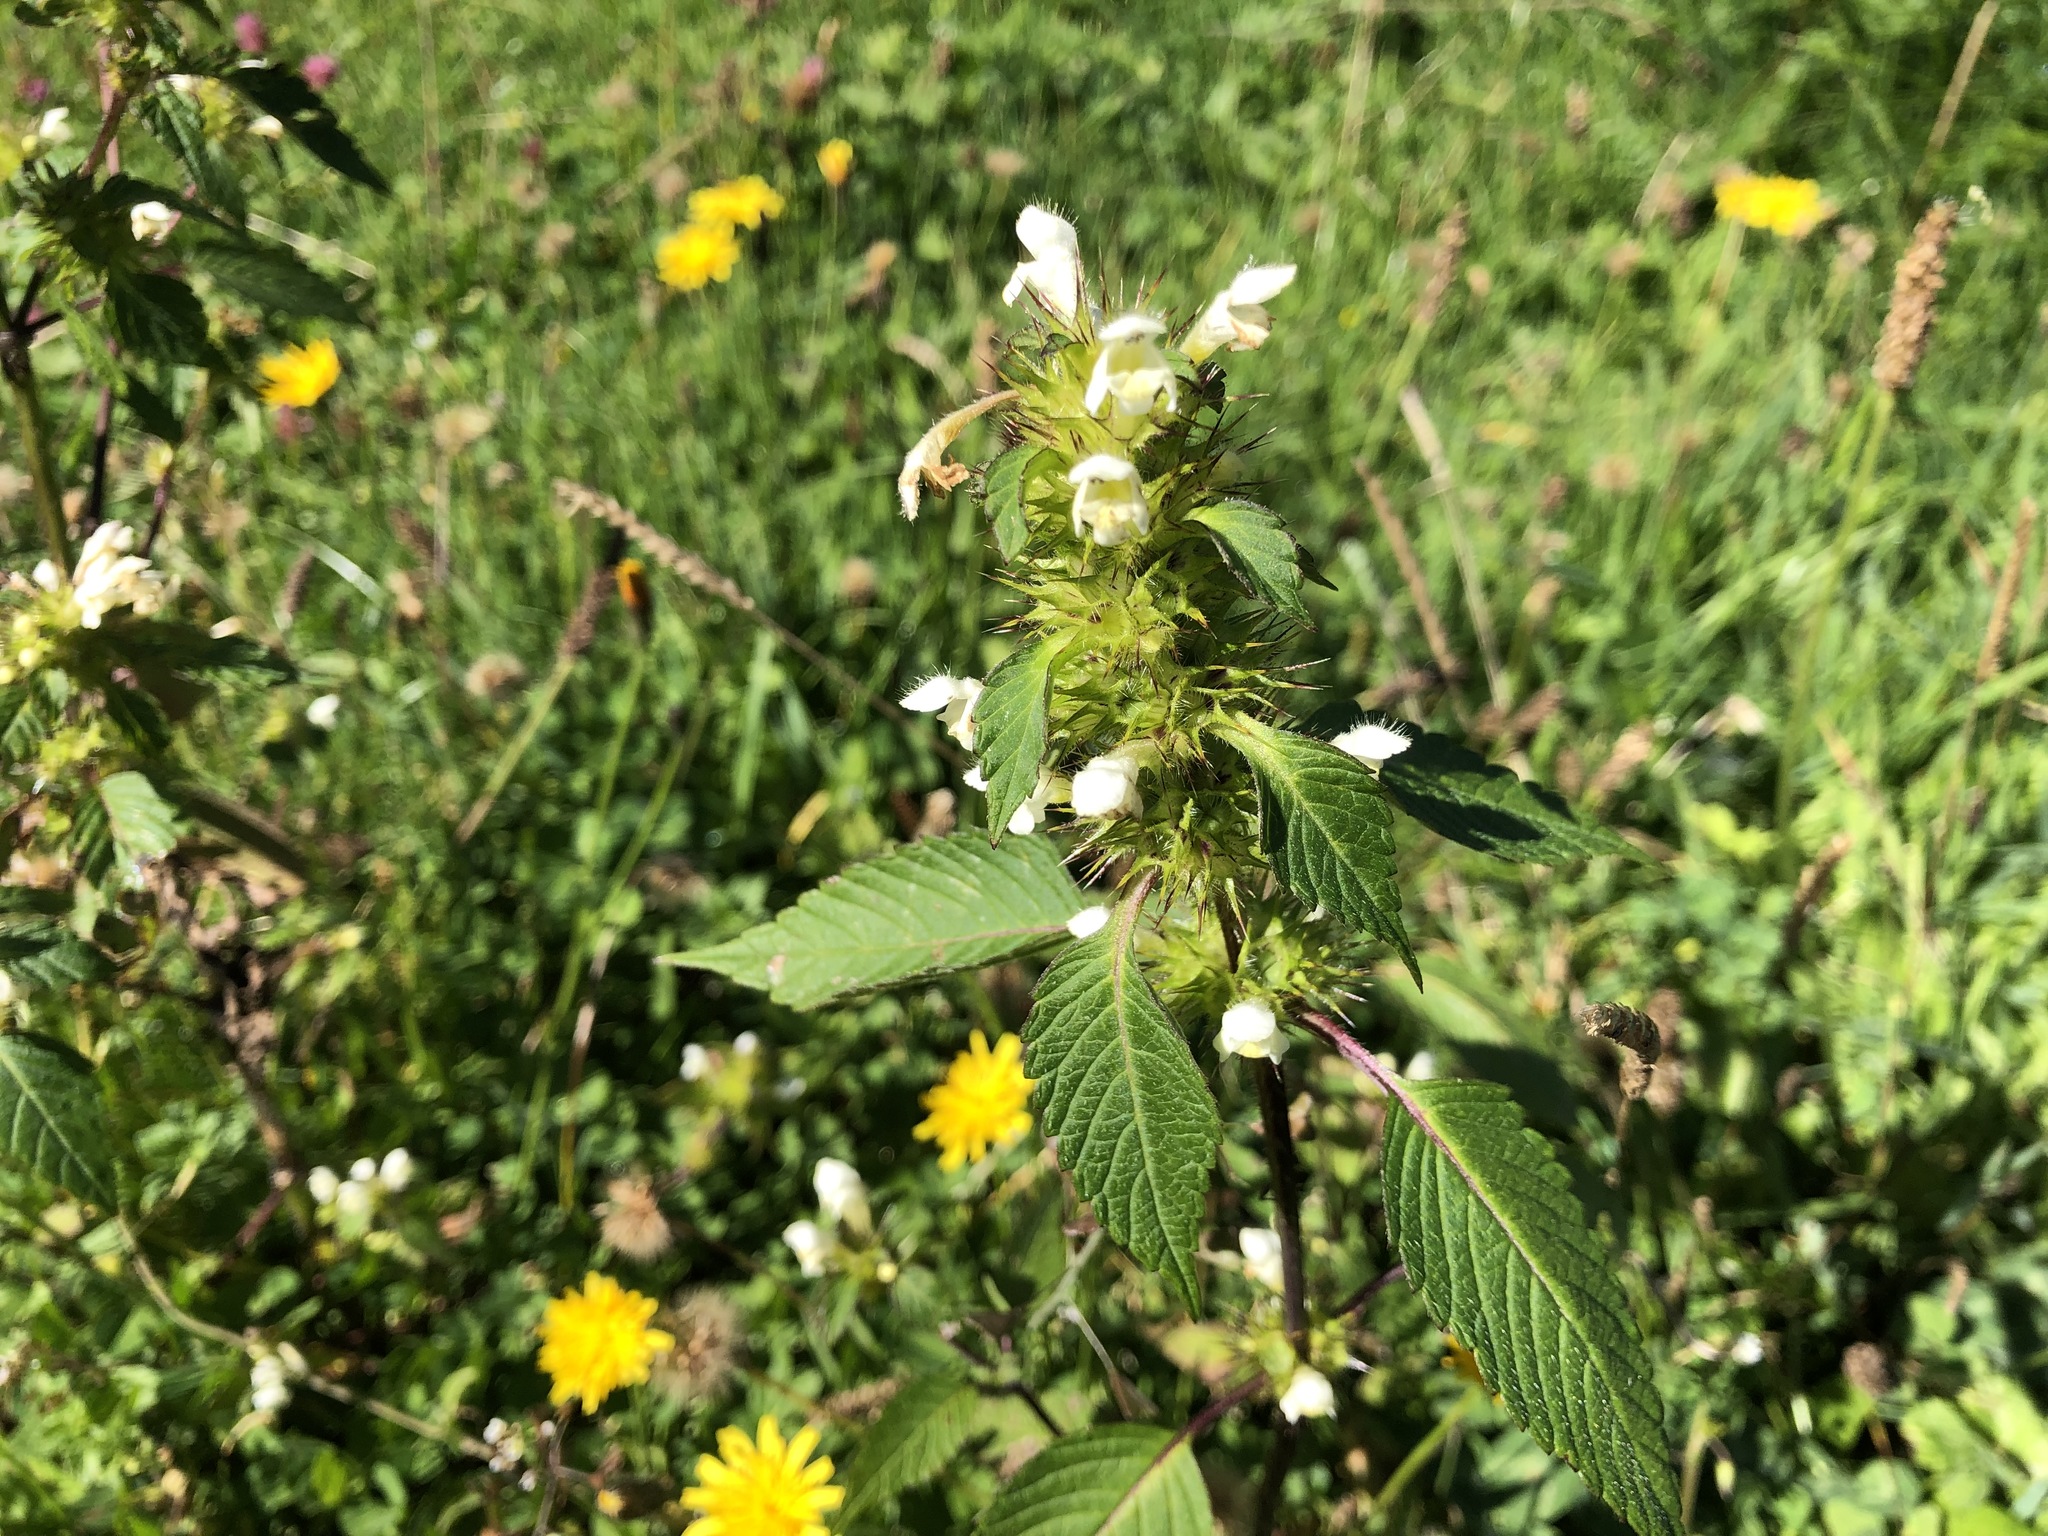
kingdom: Plantae
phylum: Tracheophyta
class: Magnoliopsida
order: Lamiales
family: Lamiaceae
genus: Galeopsis
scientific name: Galeopsis tetrahit
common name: Common hemp-nettle
